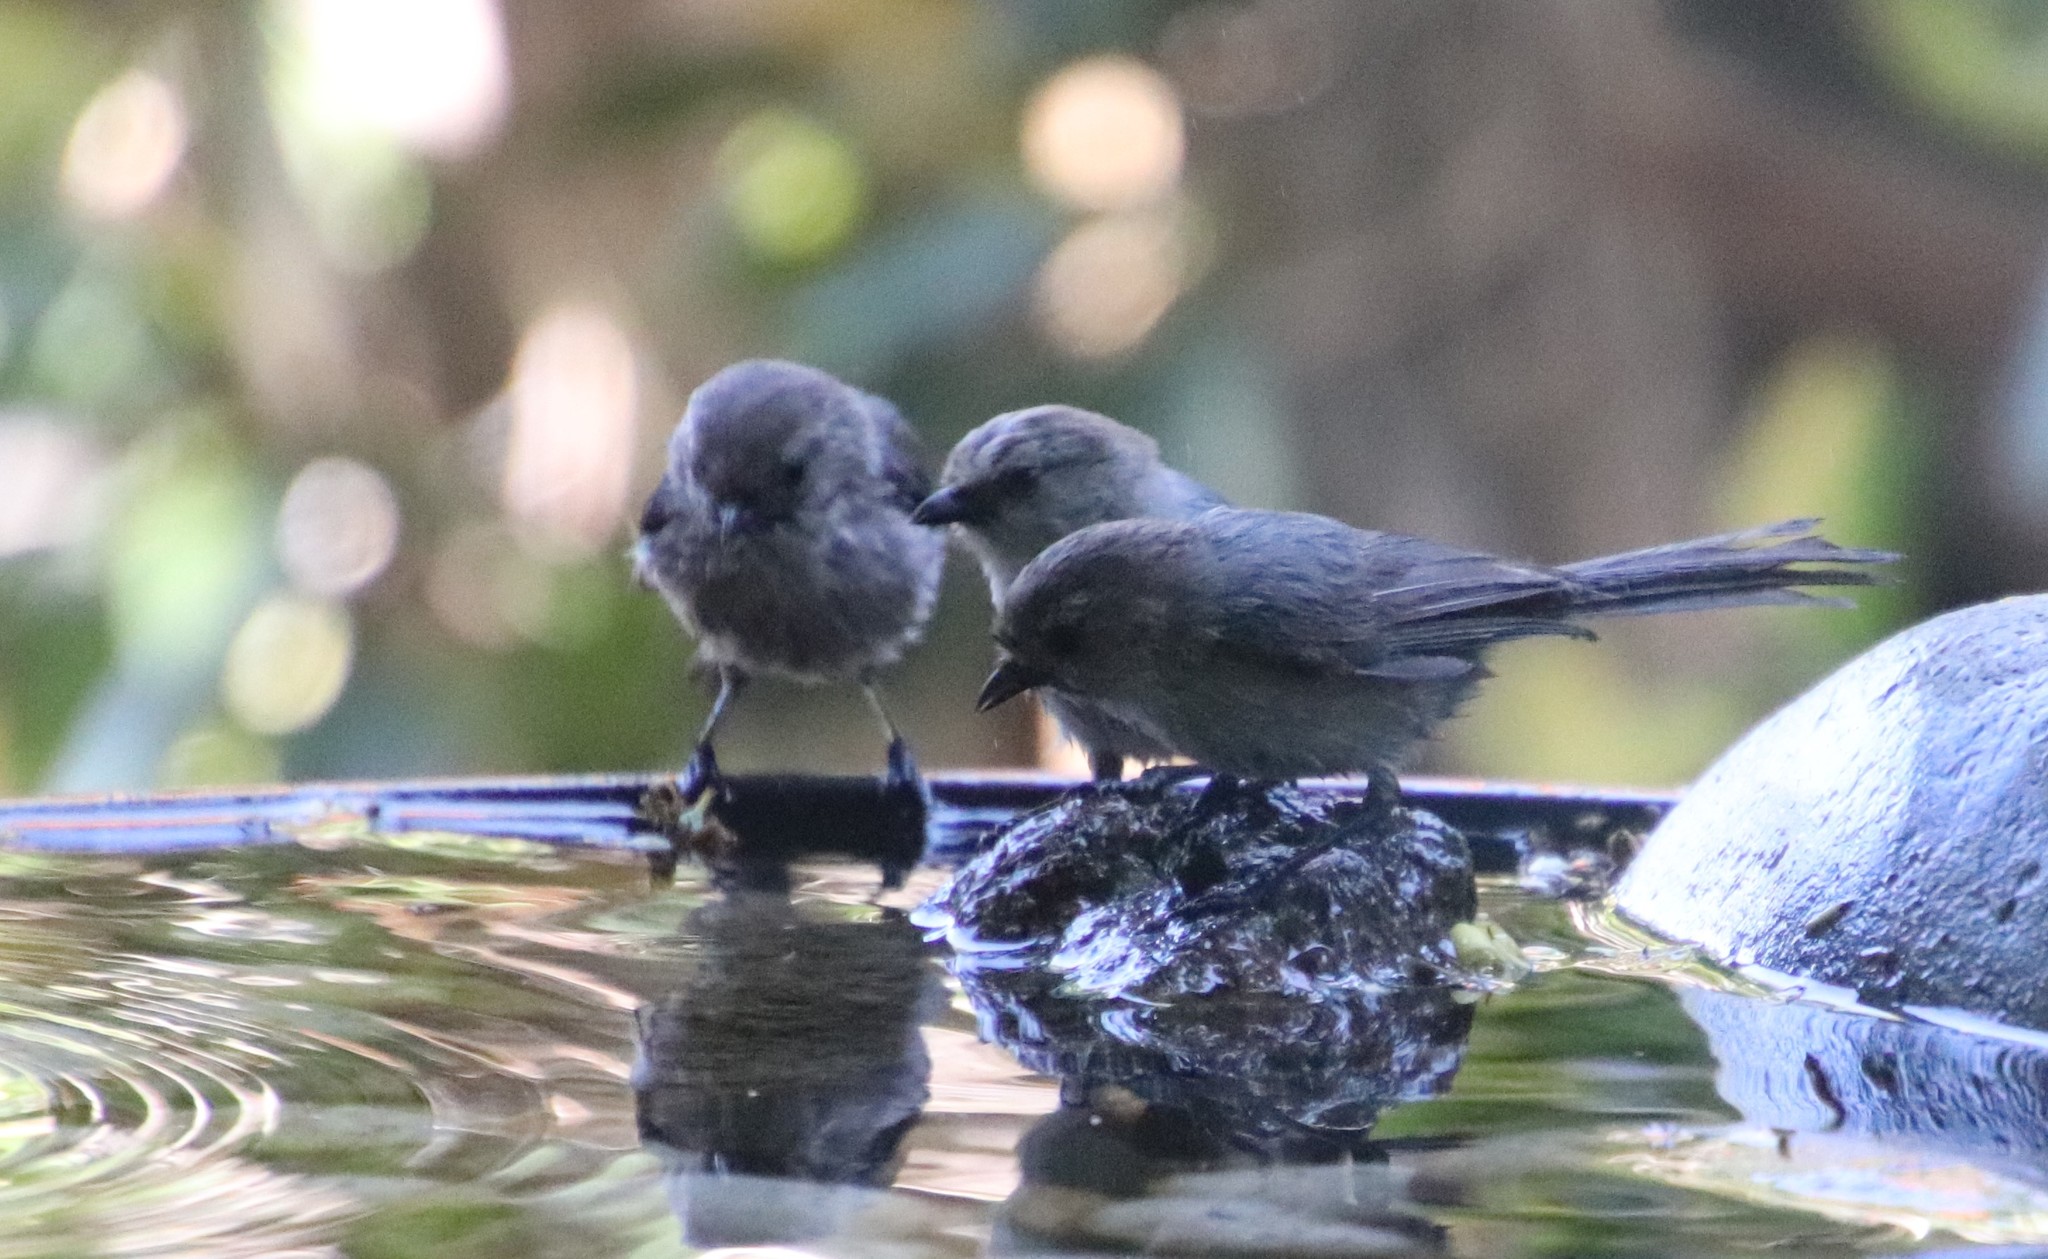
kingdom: Animalia
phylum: Chordata
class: Aves
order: Passeriformes
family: Aegithalidae
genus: Psaltriparus
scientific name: Psaltriparus minimus
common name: American bushtit
